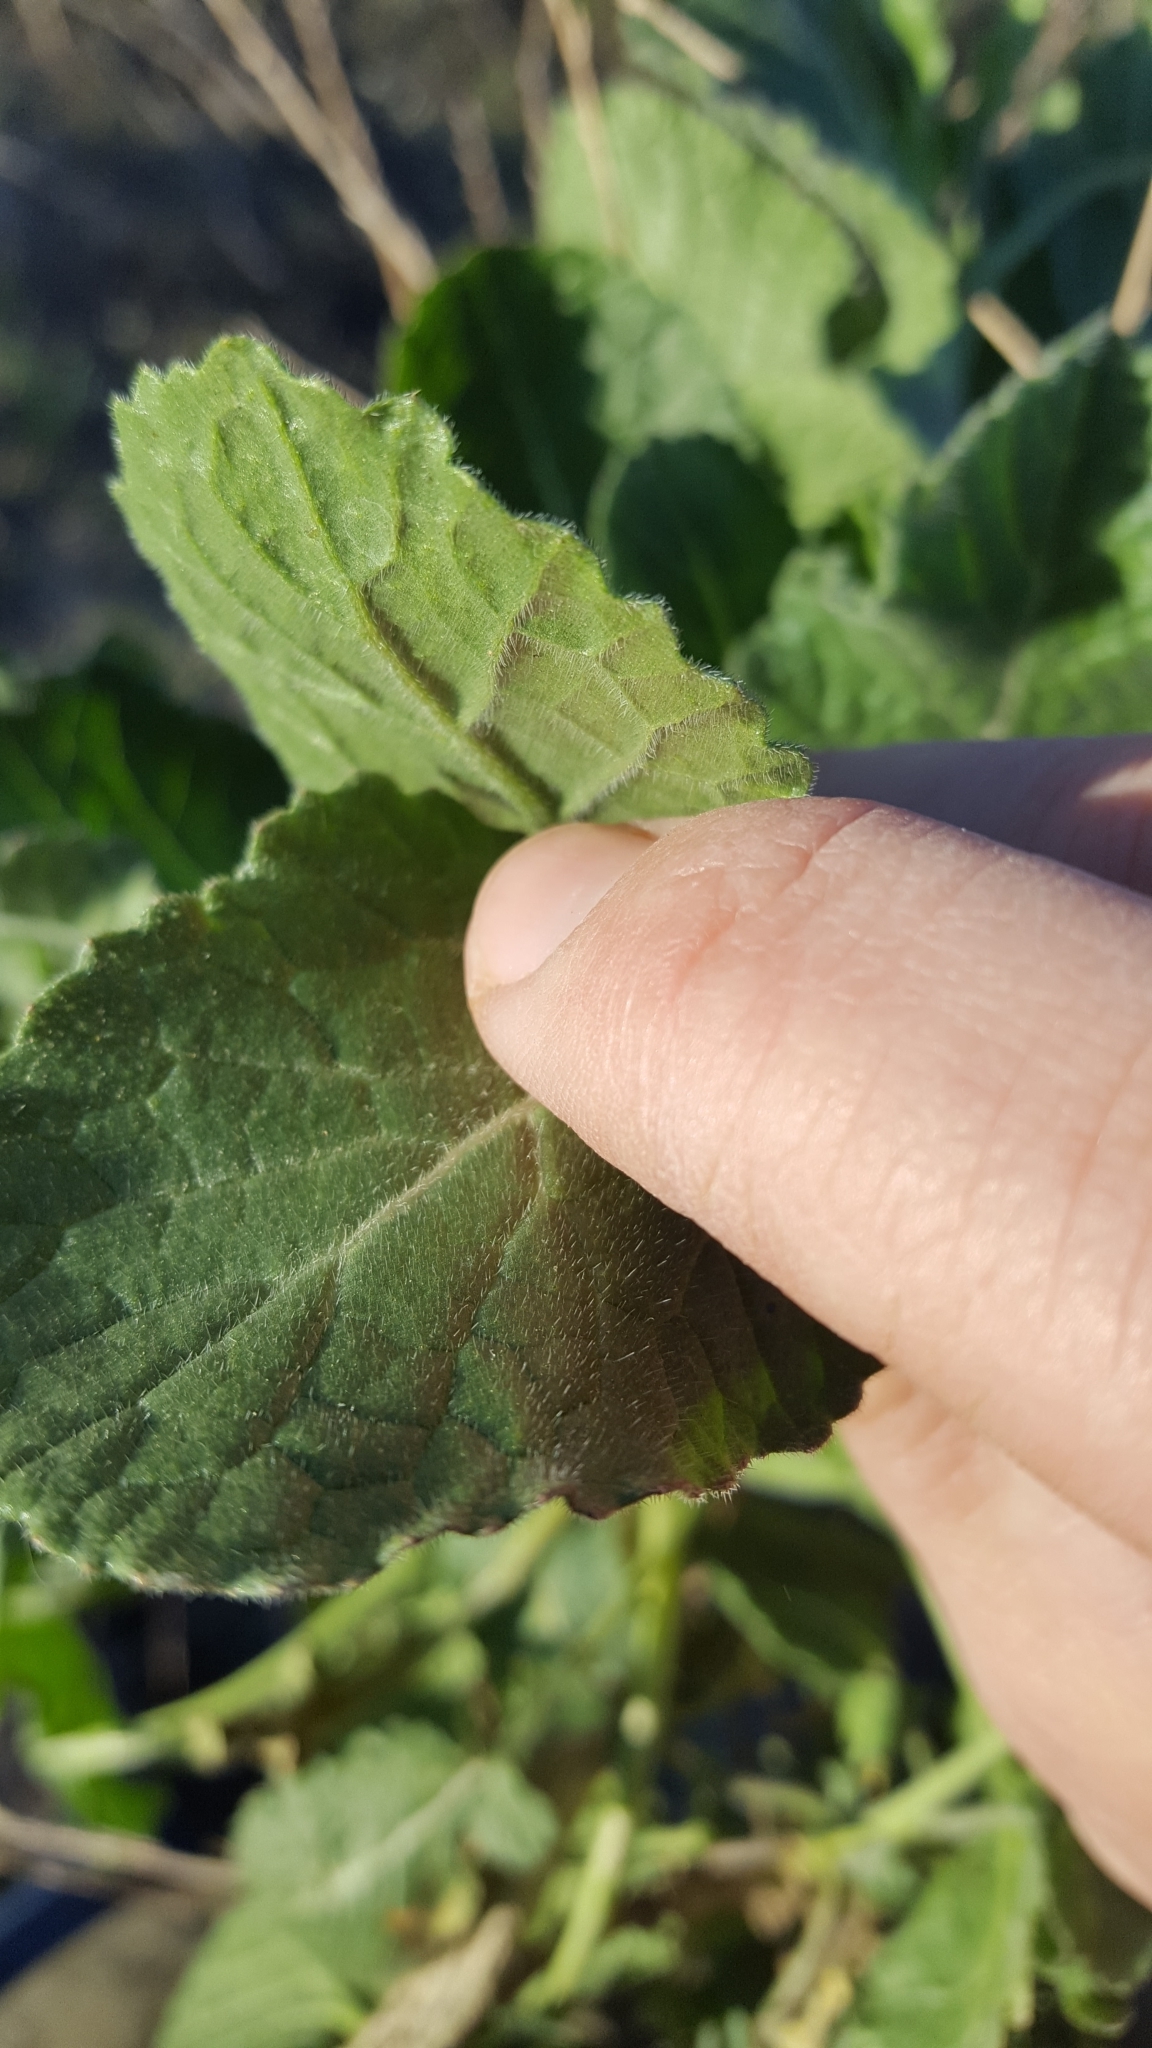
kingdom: Plantae
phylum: Tracheophyta
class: Magnoliopsida
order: Brassicales
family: Brassicaceae
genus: Hirschfeldia
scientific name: Hirschfeldia incana
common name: Hoary mustard
